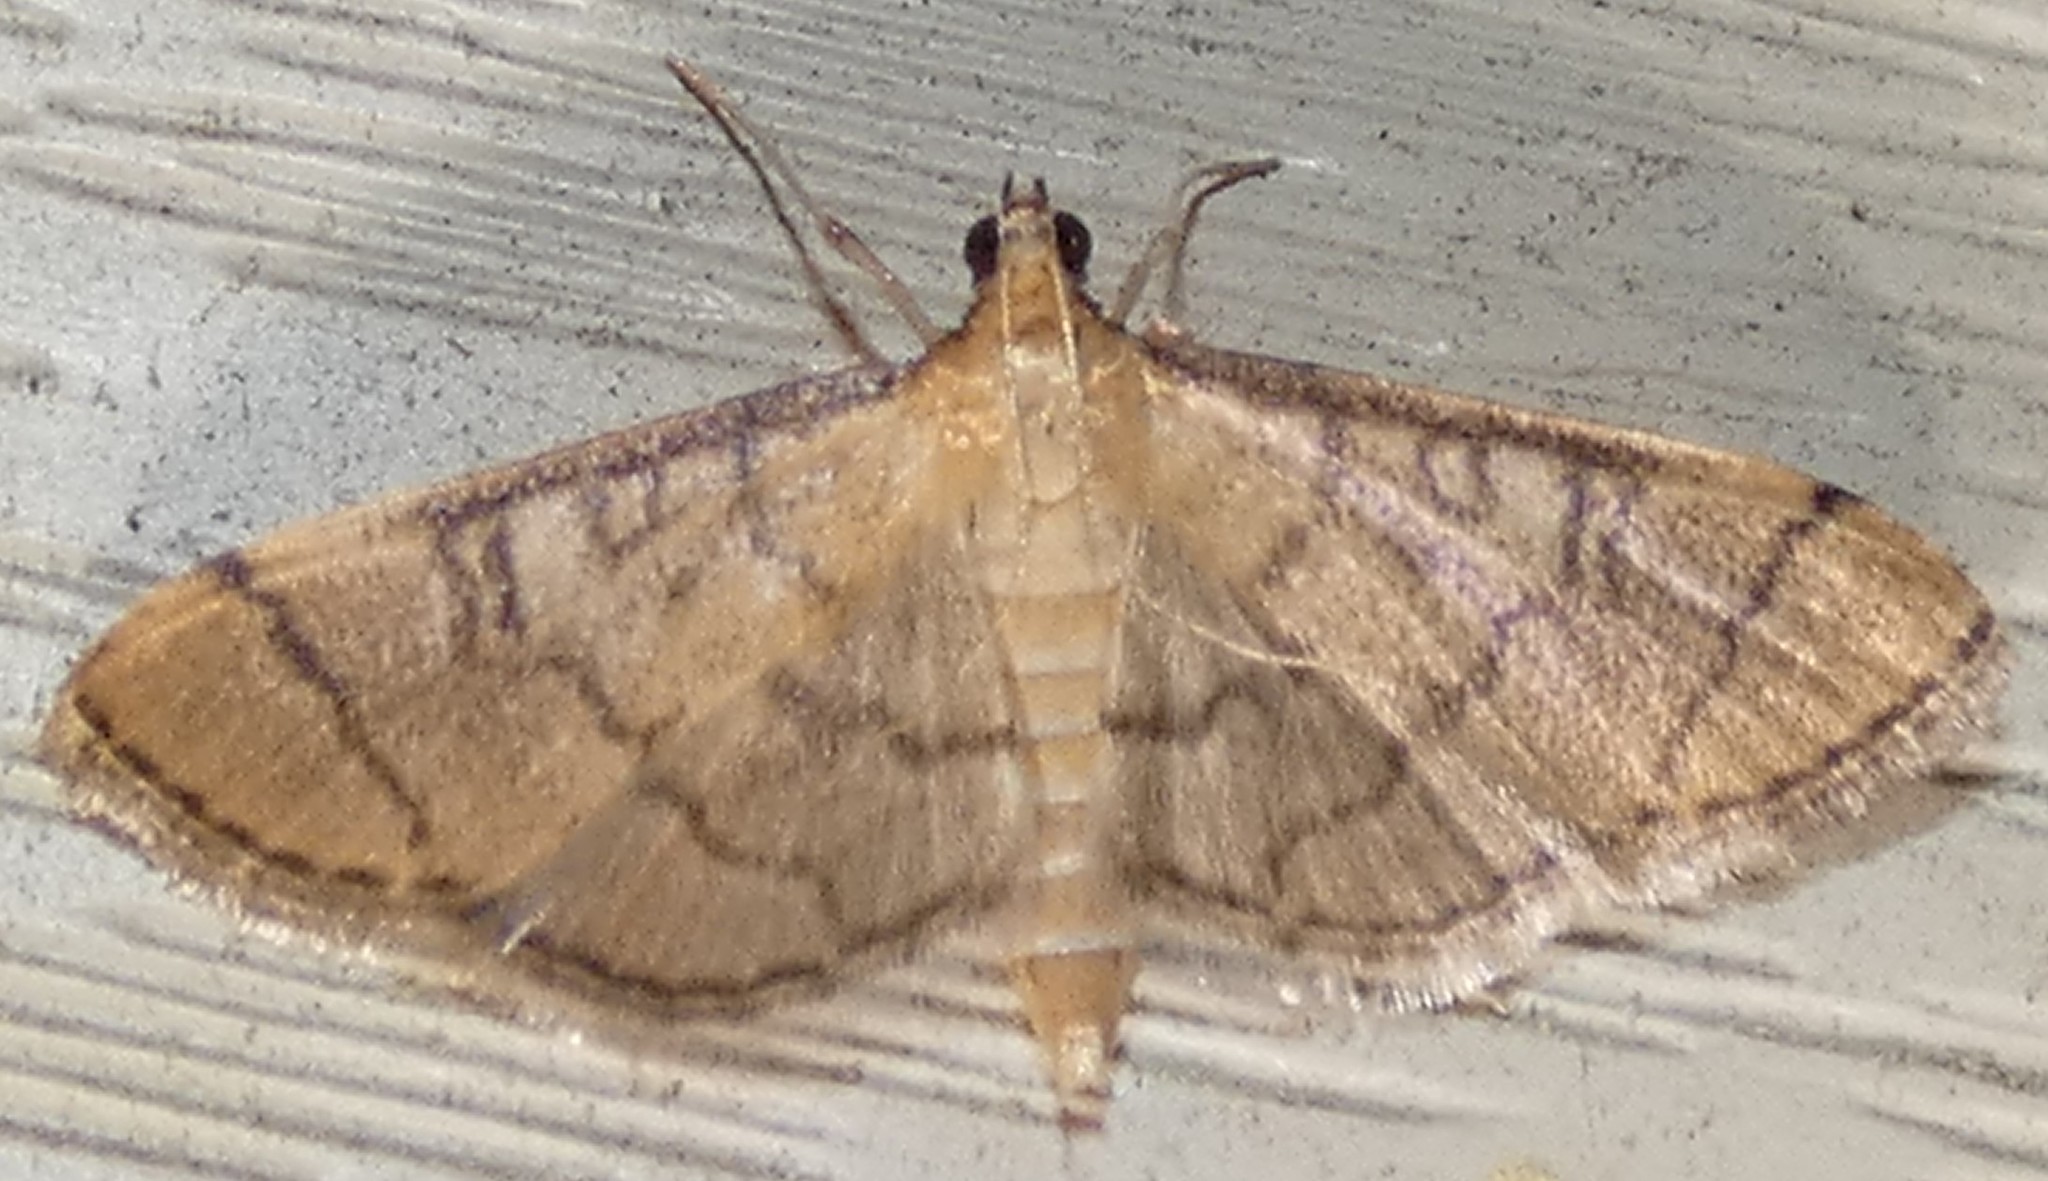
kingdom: Animalia
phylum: Arthropoda
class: Insecta
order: Lepidoptera
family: Crambidae
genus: Lamprosema
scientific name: Lamprosema Blepharomastix ranalis
